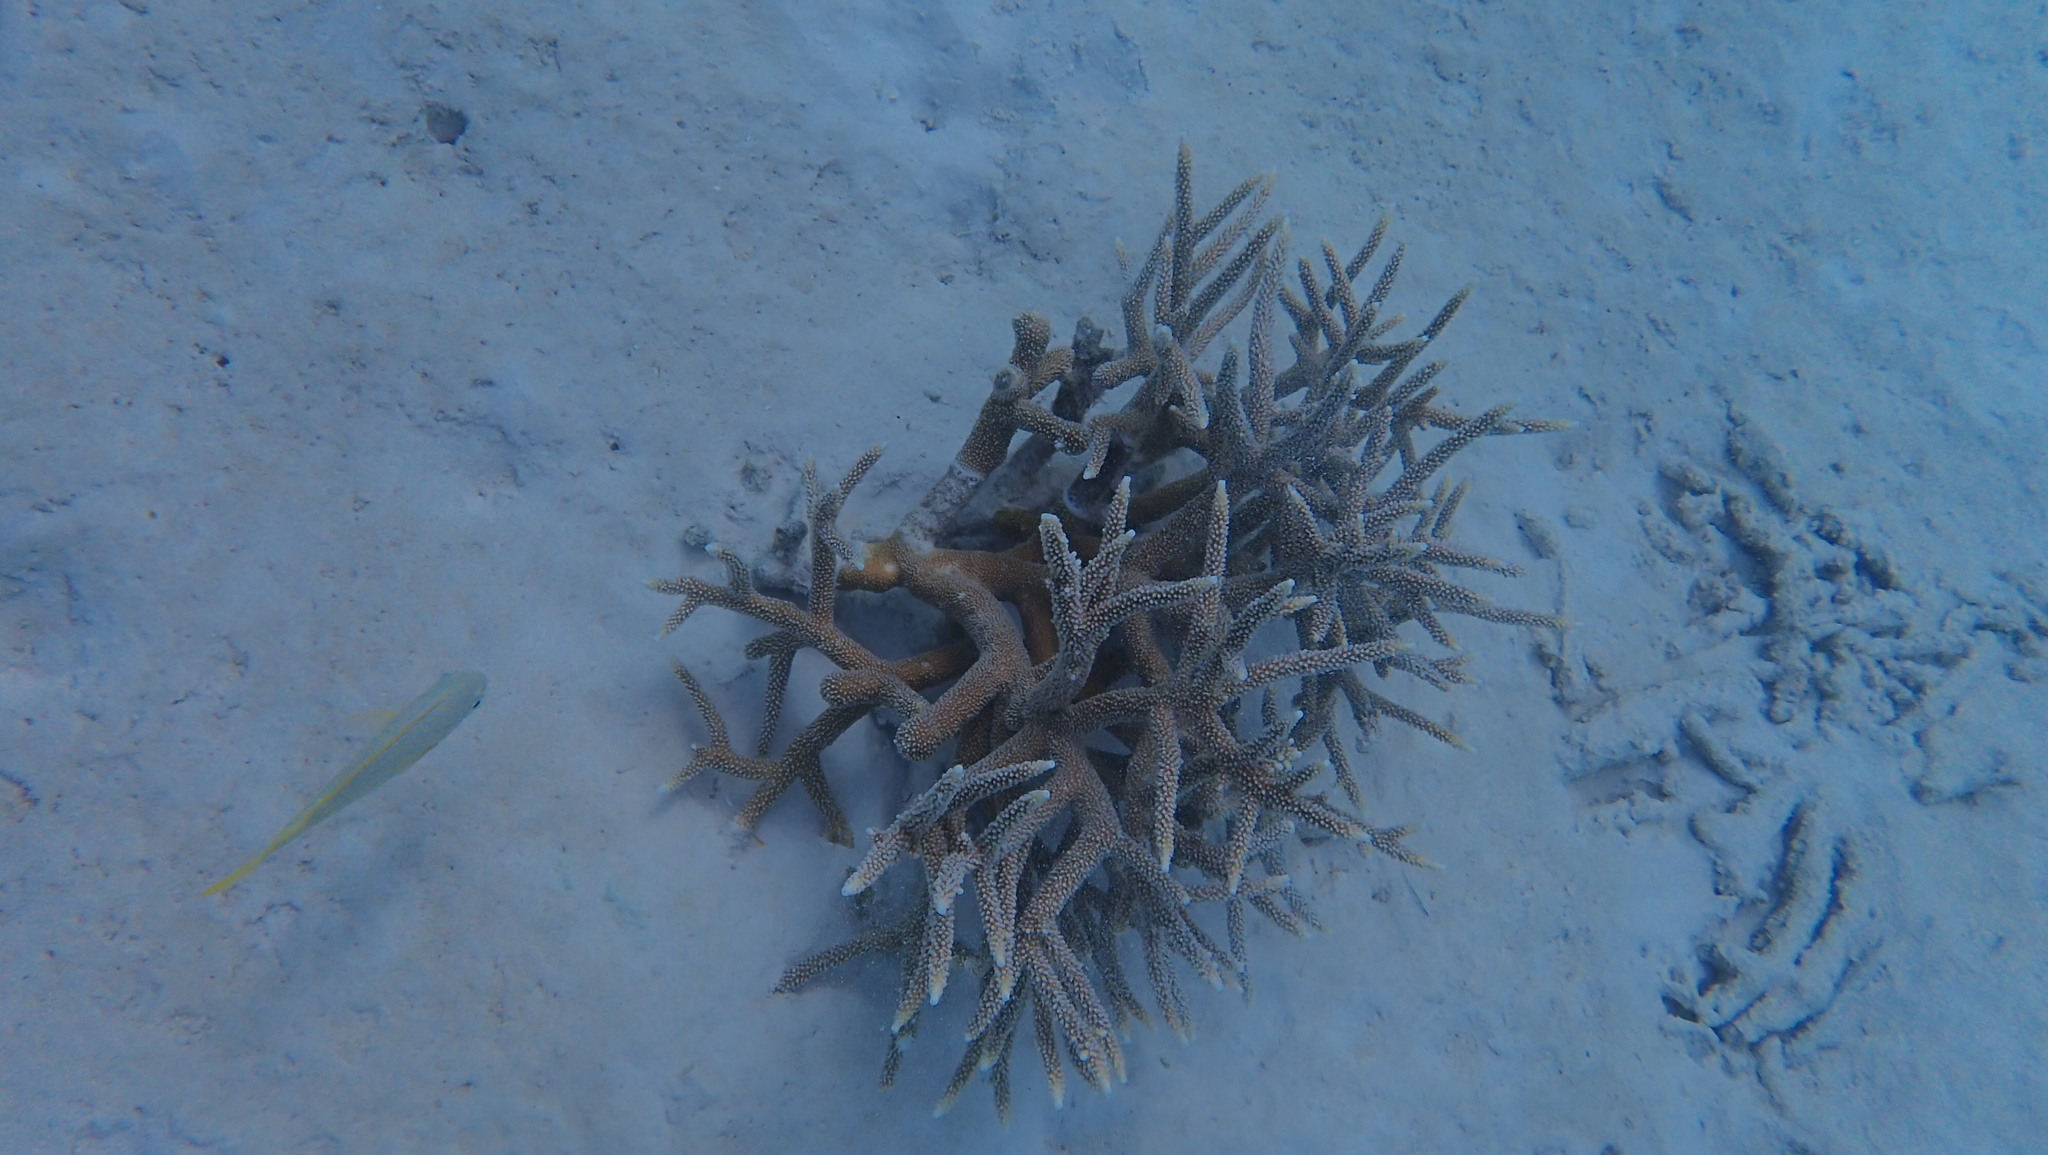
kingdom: Animalia
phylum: Cnidaria
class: Anthozoa
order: Scleractinia
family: Acroporidae
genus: Acropora
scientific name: Acropora cervicornis
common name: Staghorn coral
